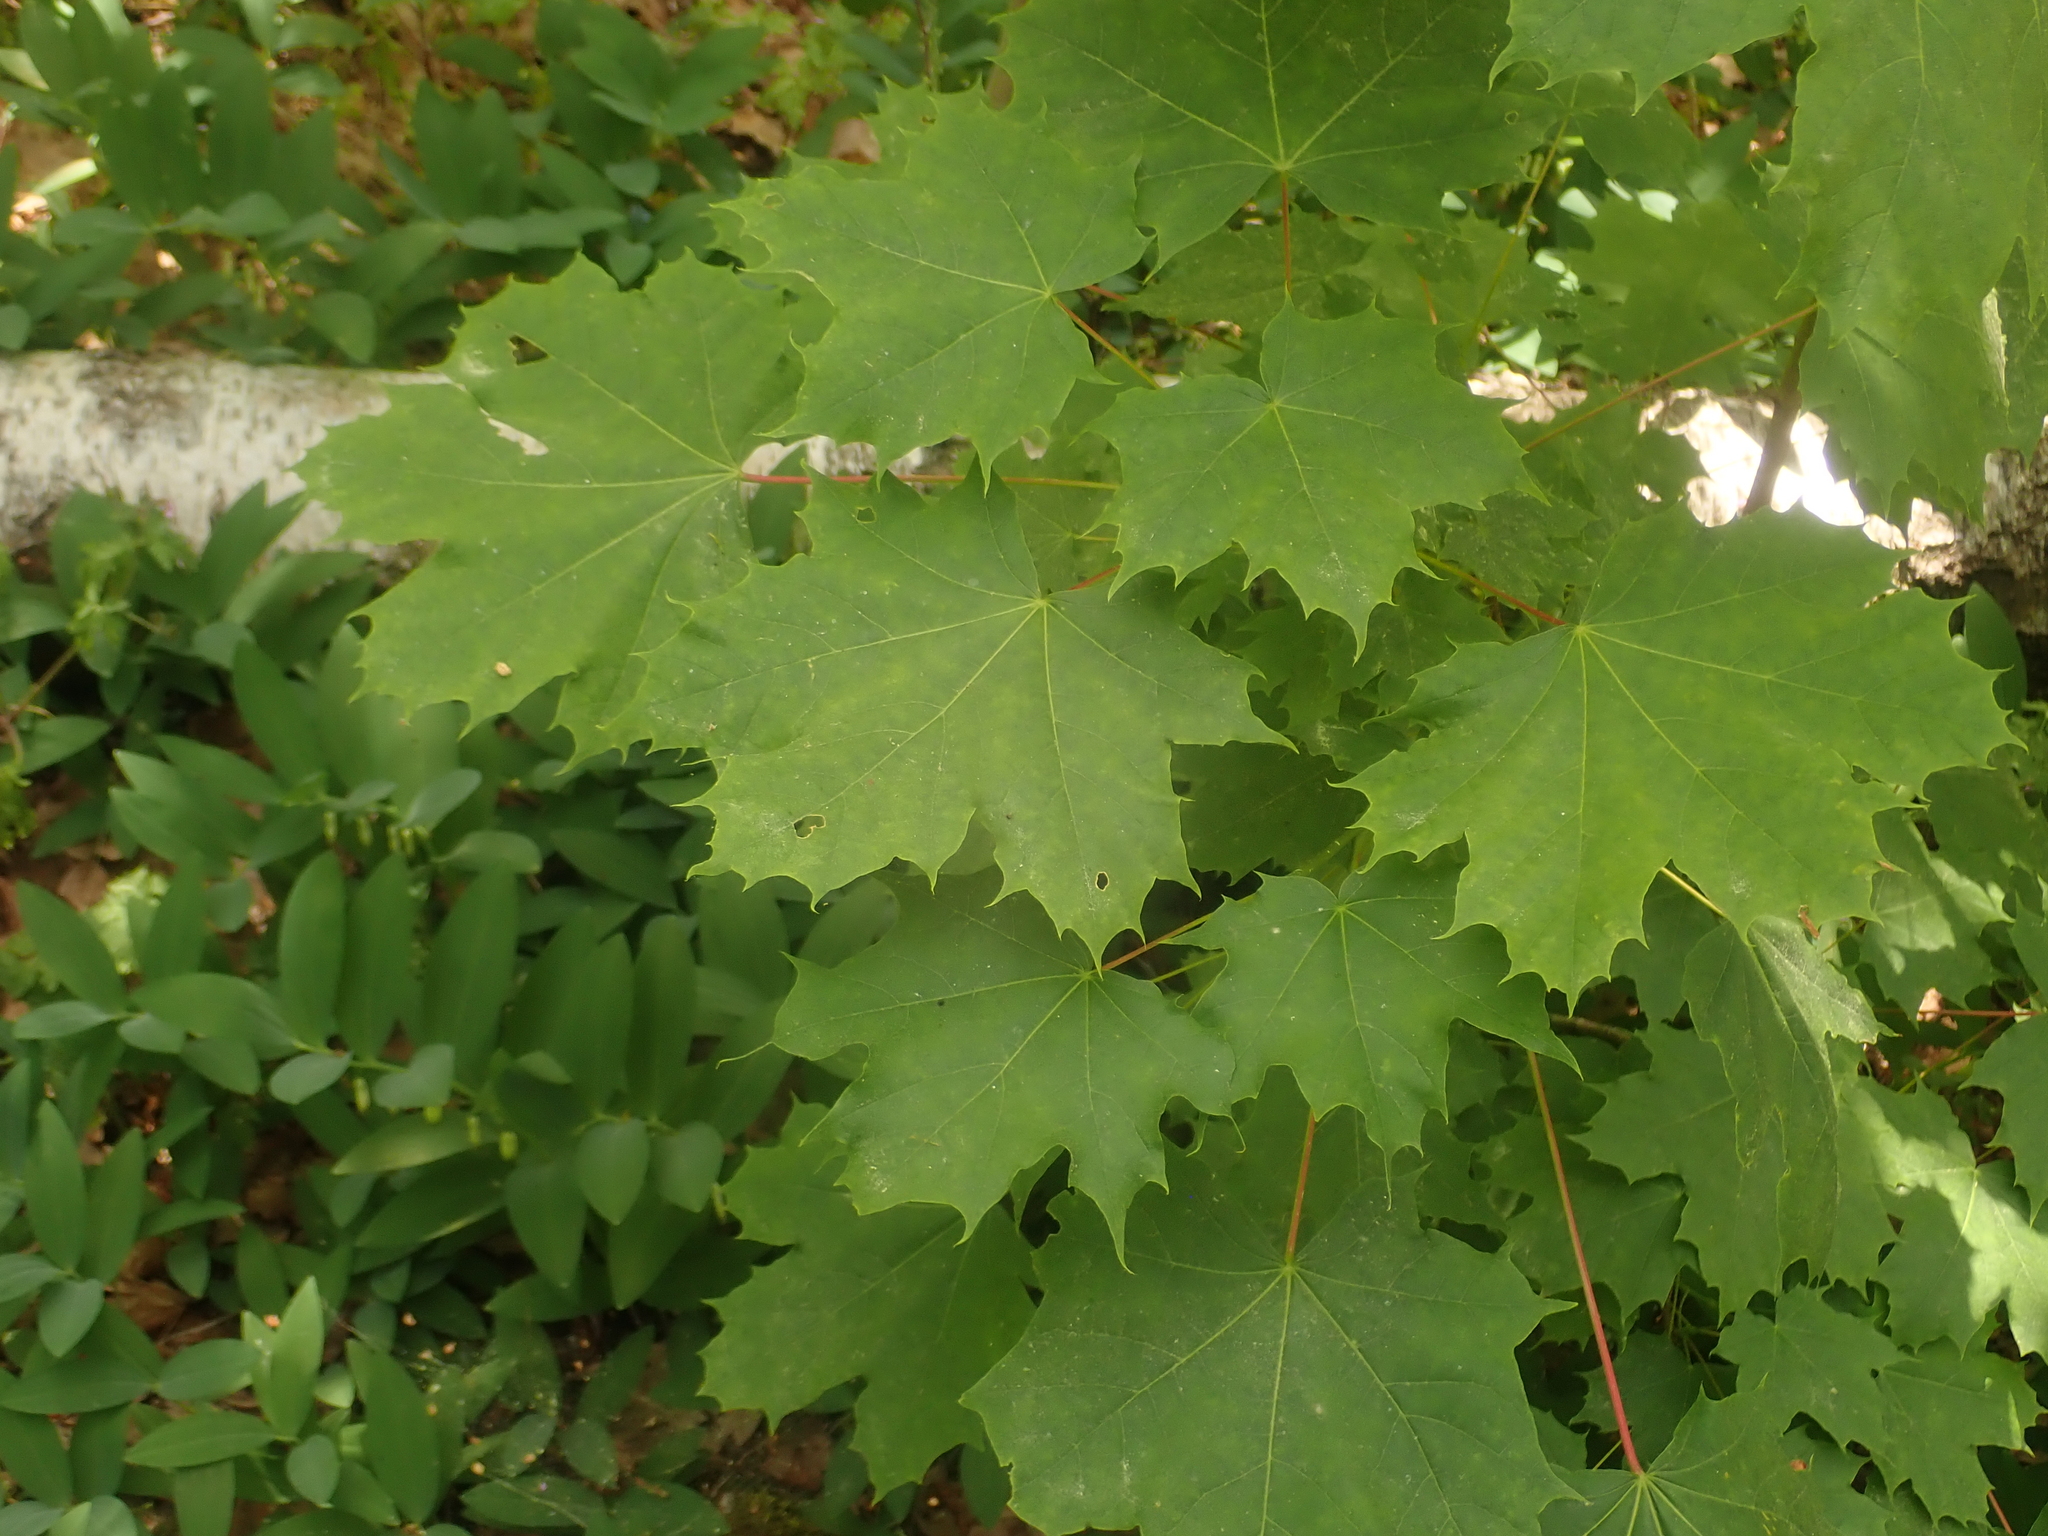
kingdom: Plantae
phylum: Tracheophyta
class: Magnoliopsida
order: Sapindales
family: Sapindaceae
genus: Acer
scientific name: Acer platanoides
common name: Norway maple
